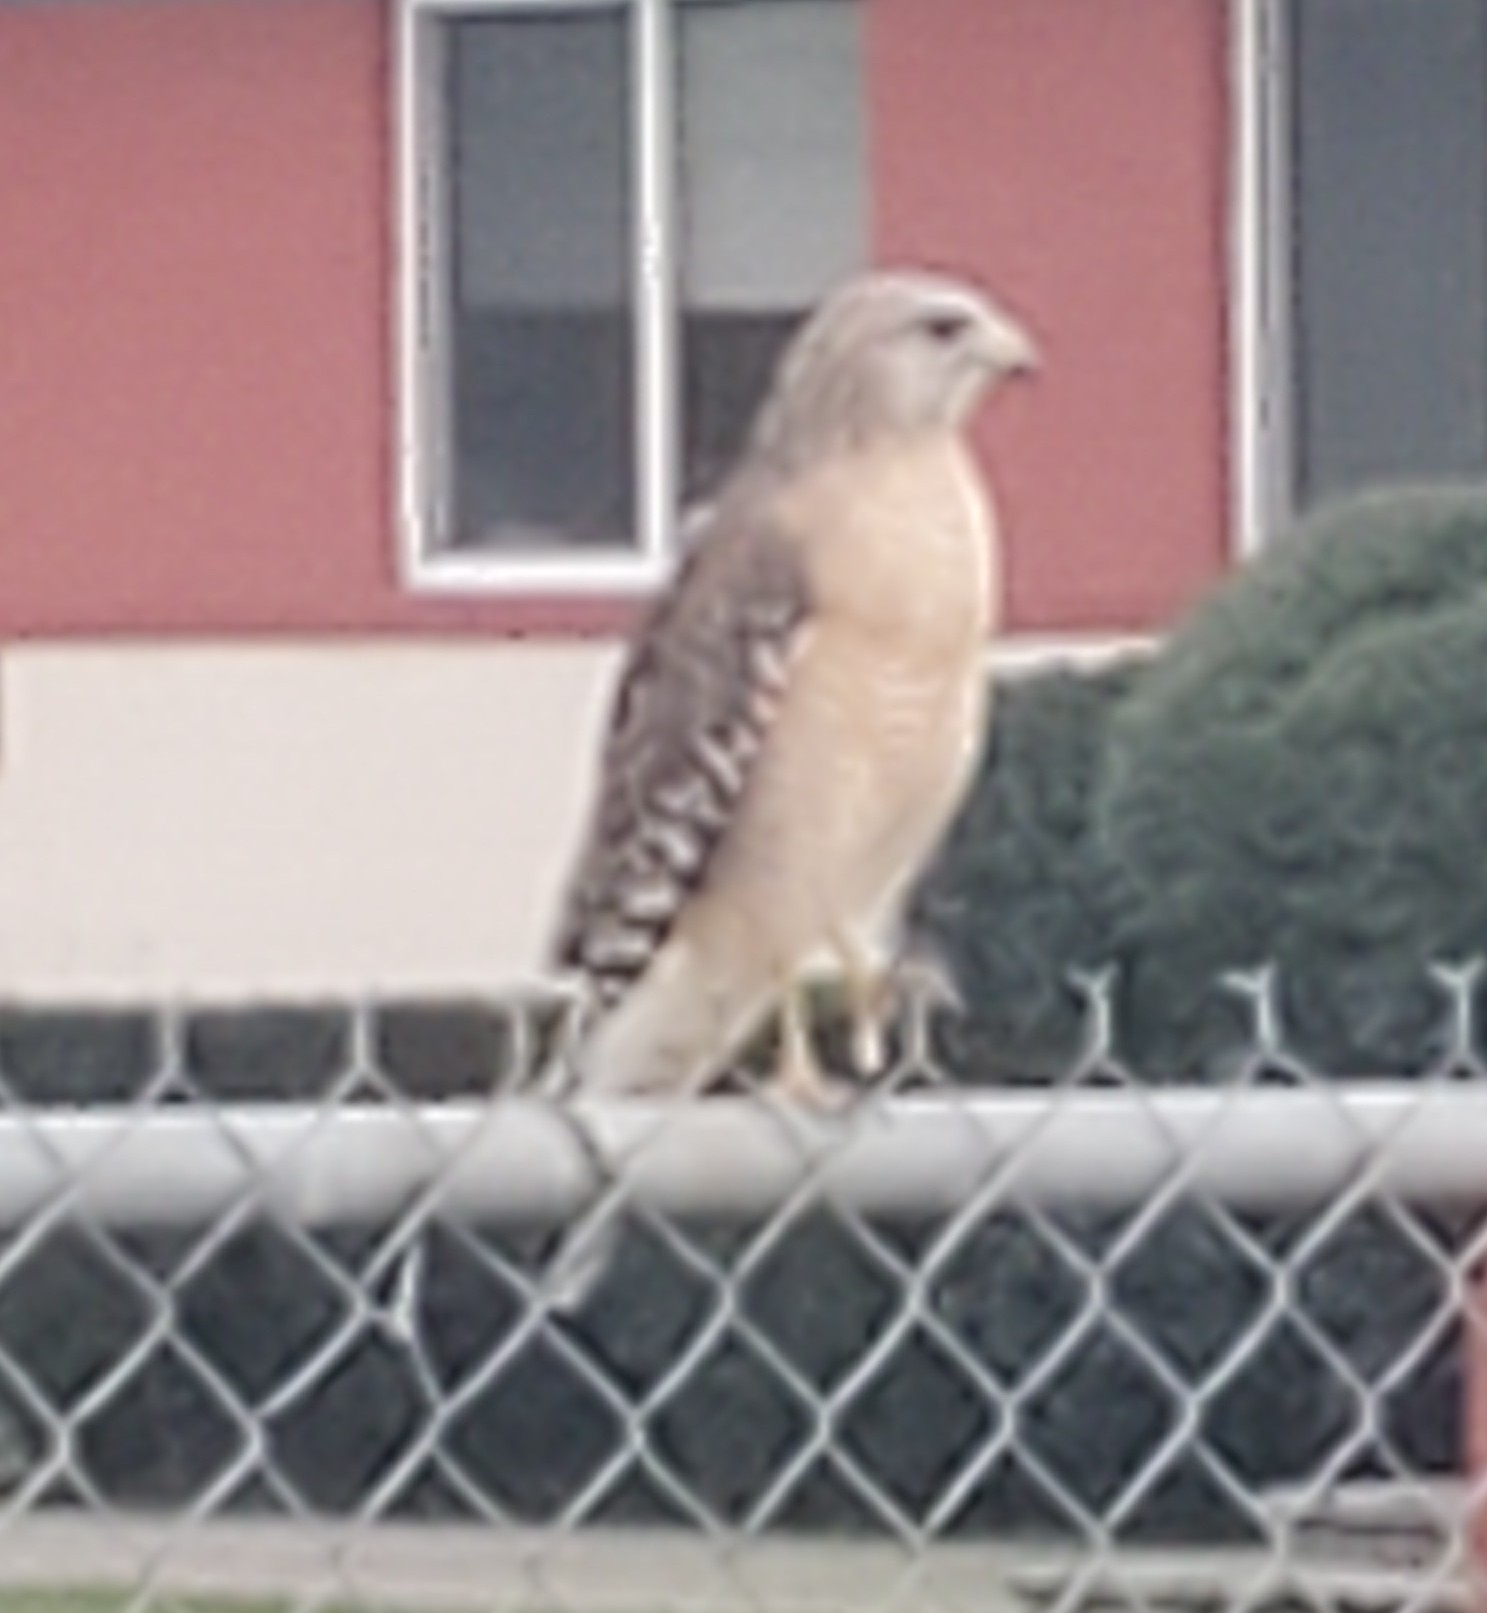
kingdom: Animalia
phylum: Chordata
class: Aves
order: Accipitriformes
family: Accipitridae
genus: Buteo
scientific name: Buteo lineatus
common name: Red-shouldered hawk
